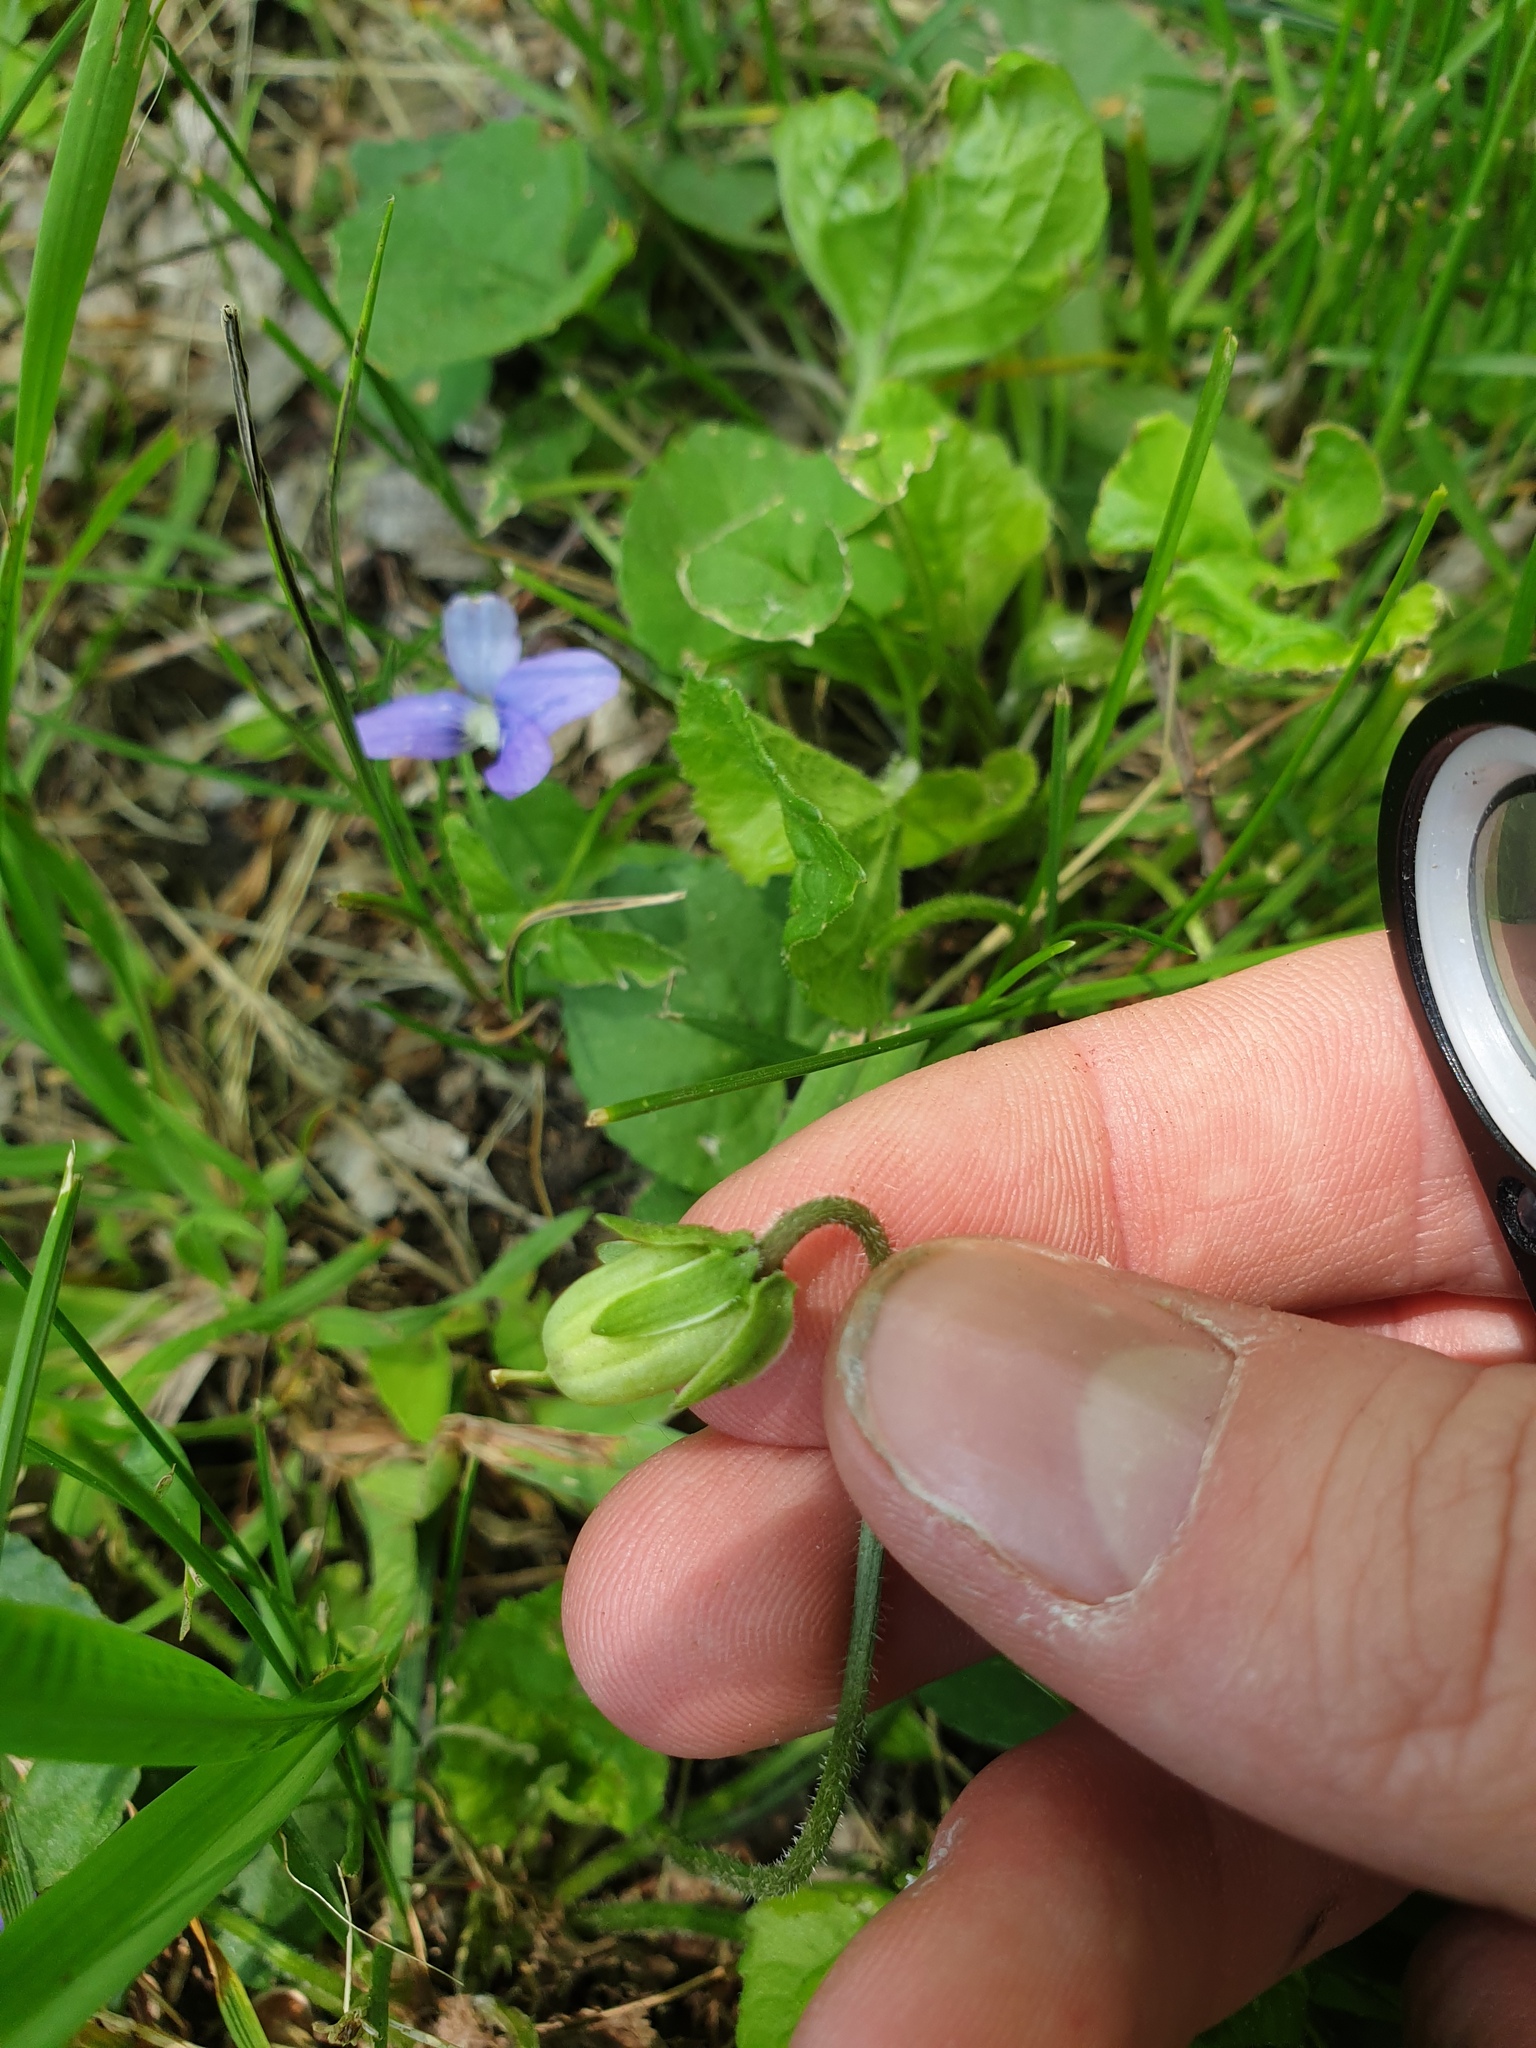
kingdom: Plantae
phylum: Tracheophyta
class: Magnoliopsida
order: Malpighiales
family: Violaceae
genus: Viola
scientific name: Viola sororia
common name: Dooryard violet
